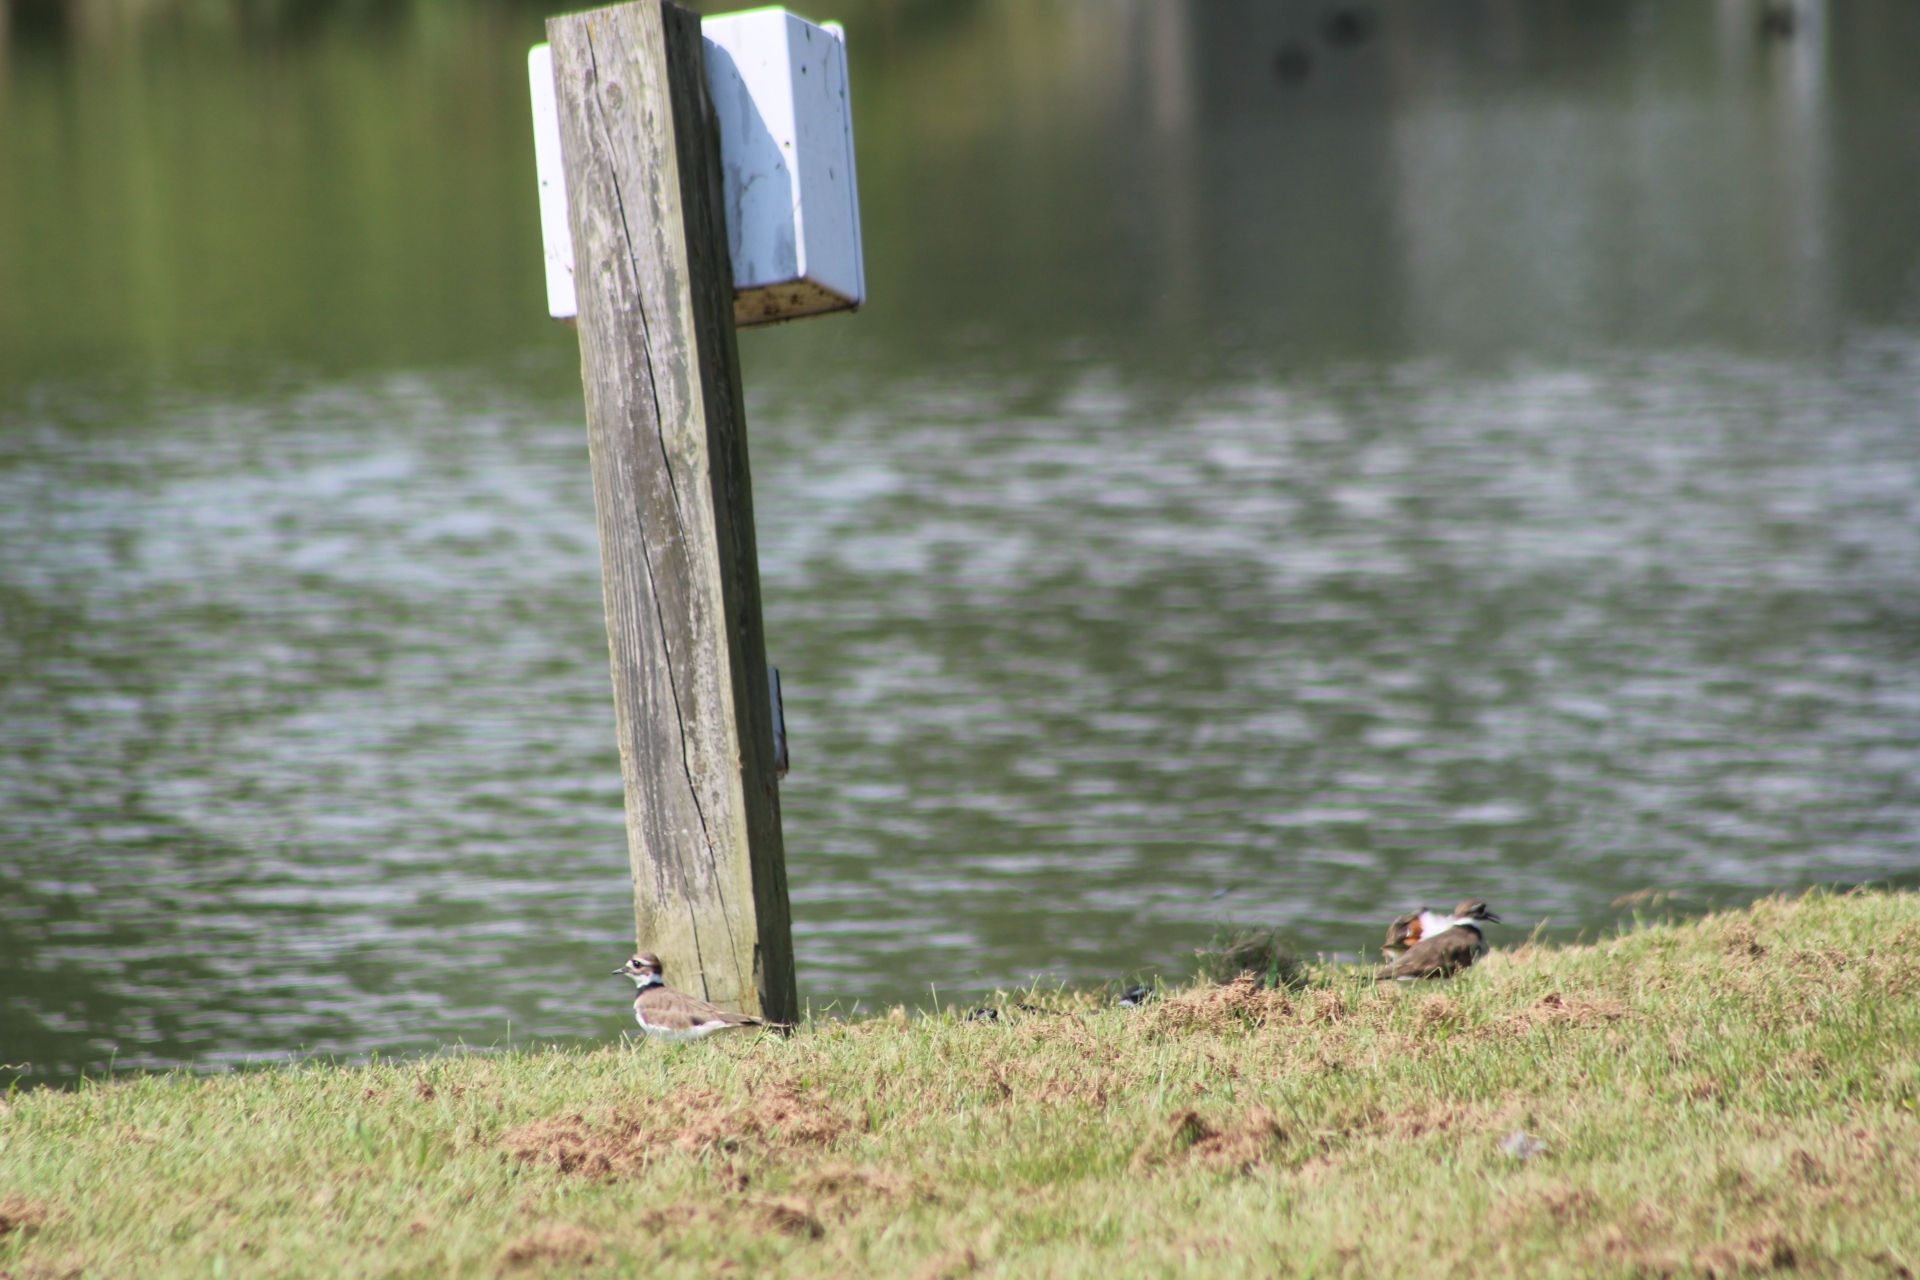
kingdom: Animalia
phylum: Chordata
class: Aves
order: Charadriiformes
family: Charadriidae
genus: Charadrius
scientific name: Charadrius vociferus
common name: Killdeer
